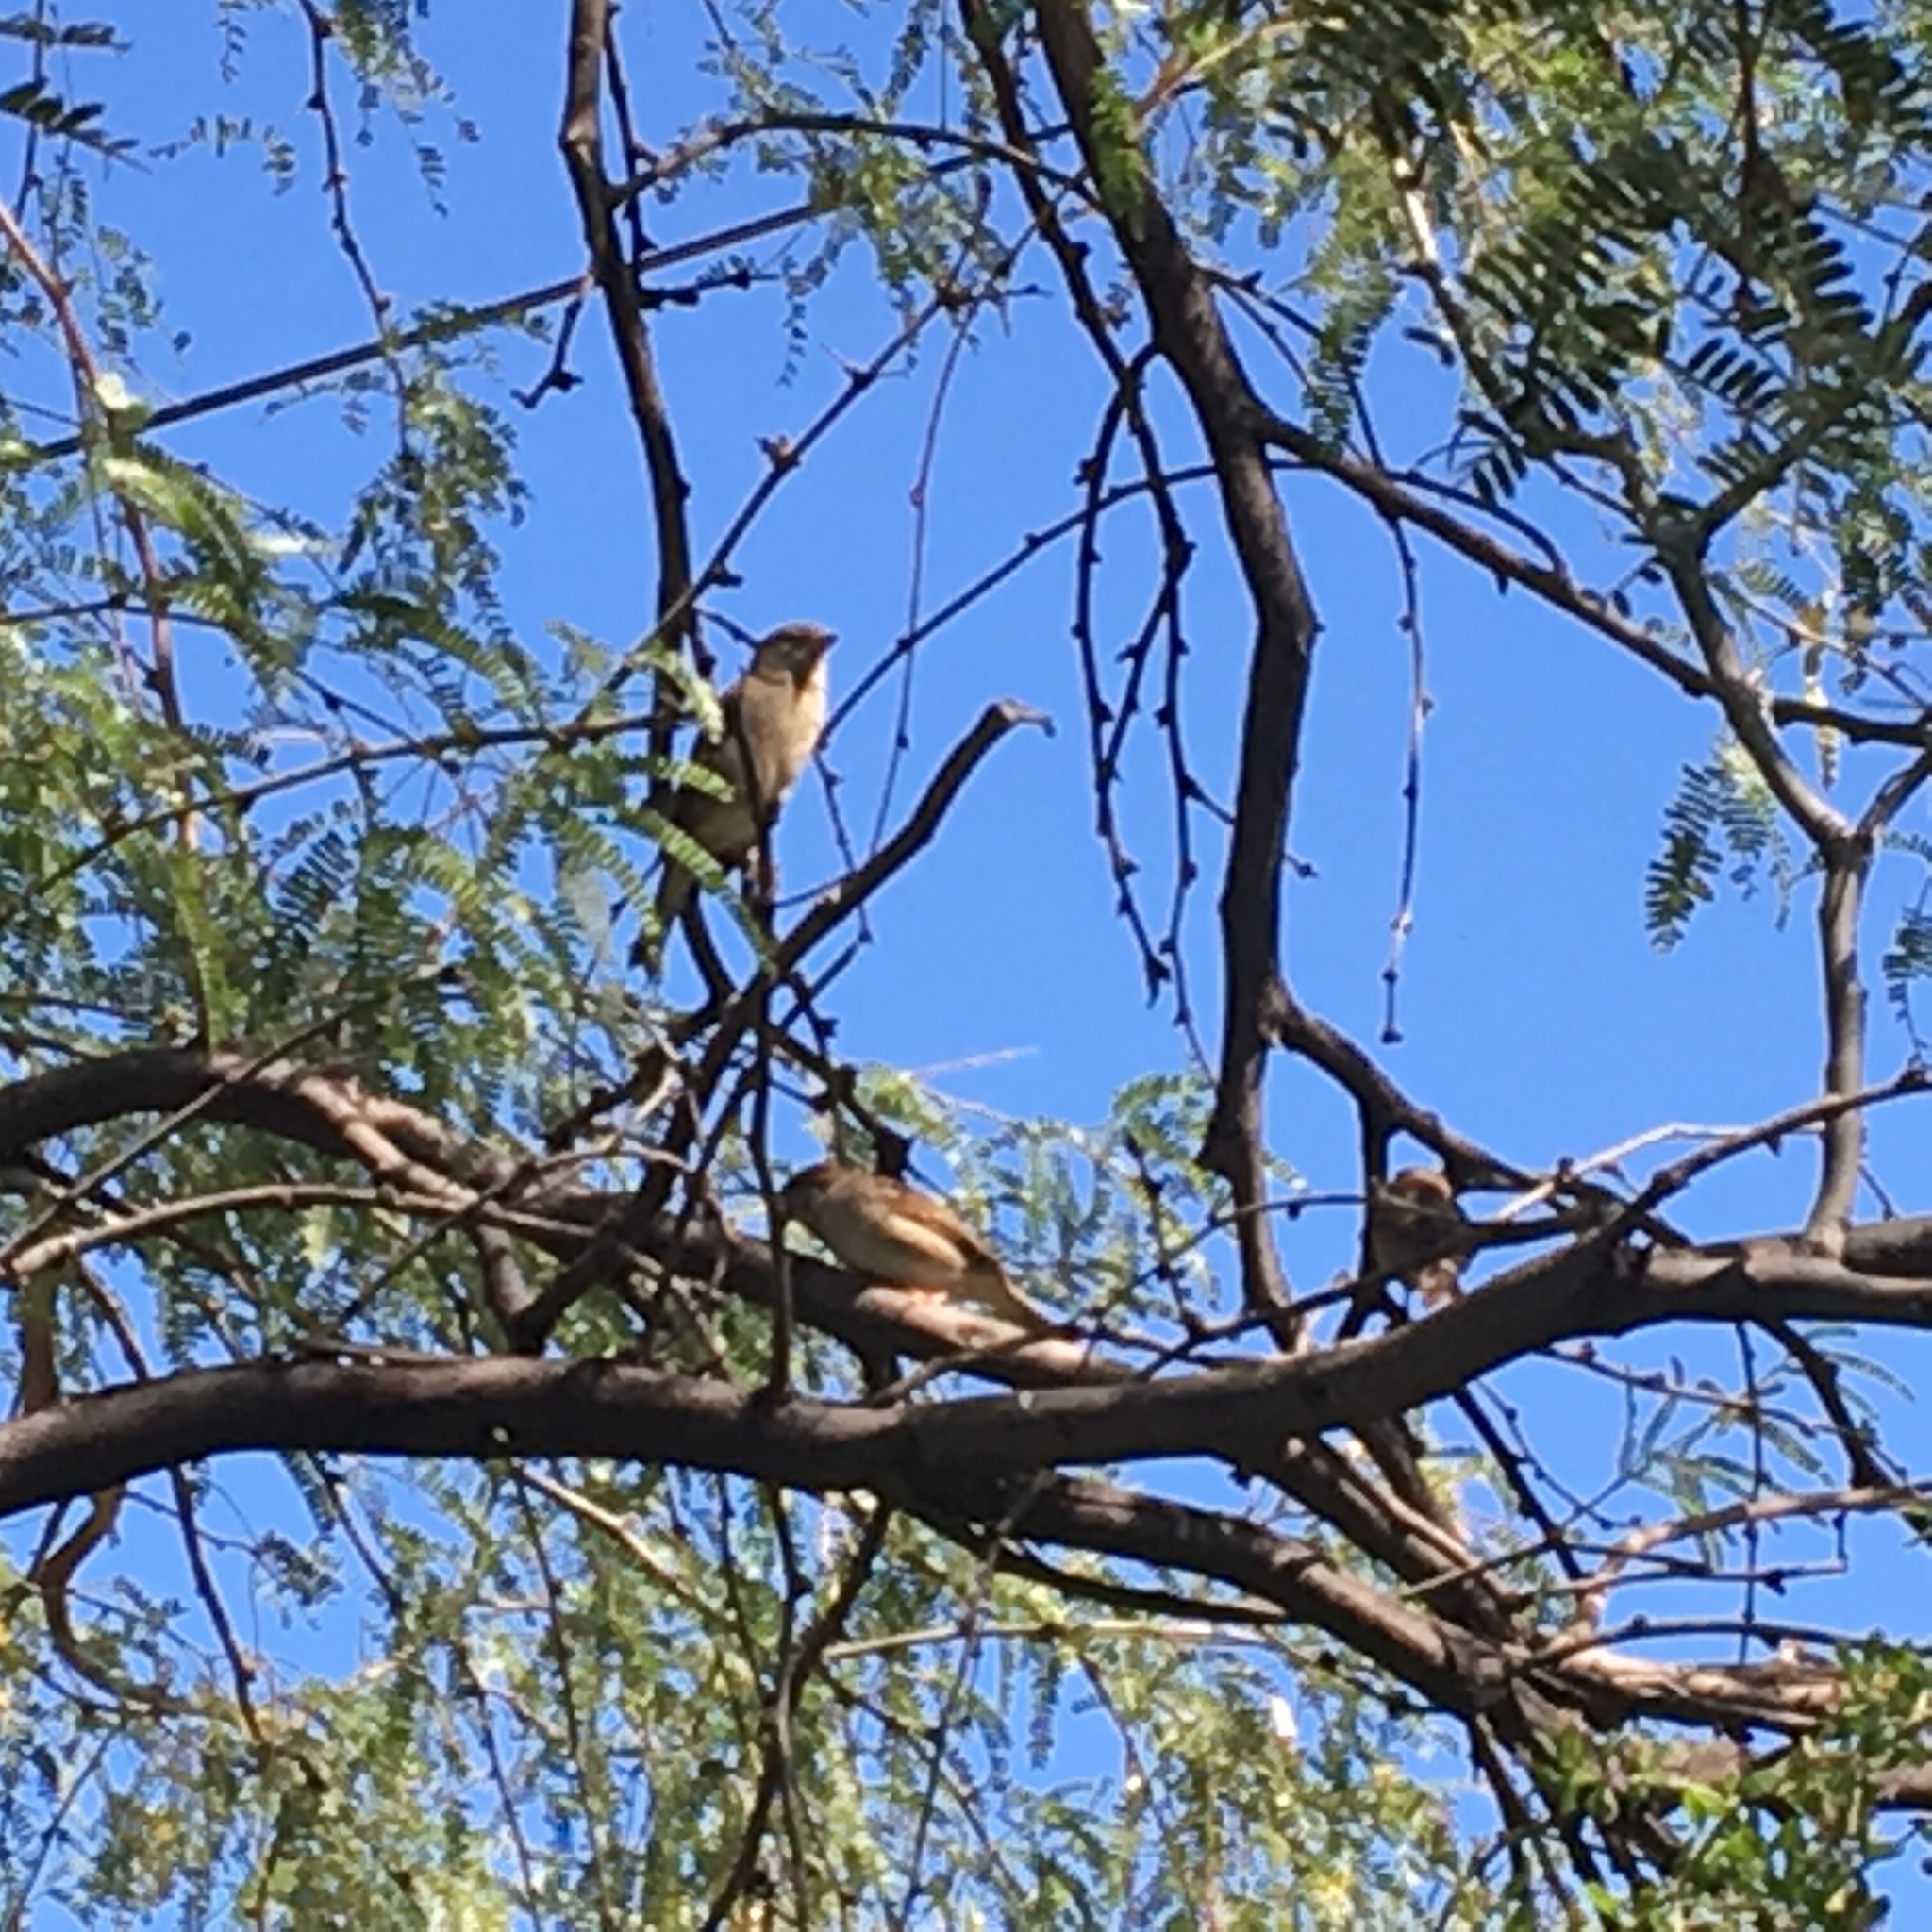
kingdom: Animalia
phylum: Chordata
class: Aves
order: Passeriformes
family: Passeridae
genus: Passer
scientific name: Passer domesticus
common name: House sparrow
